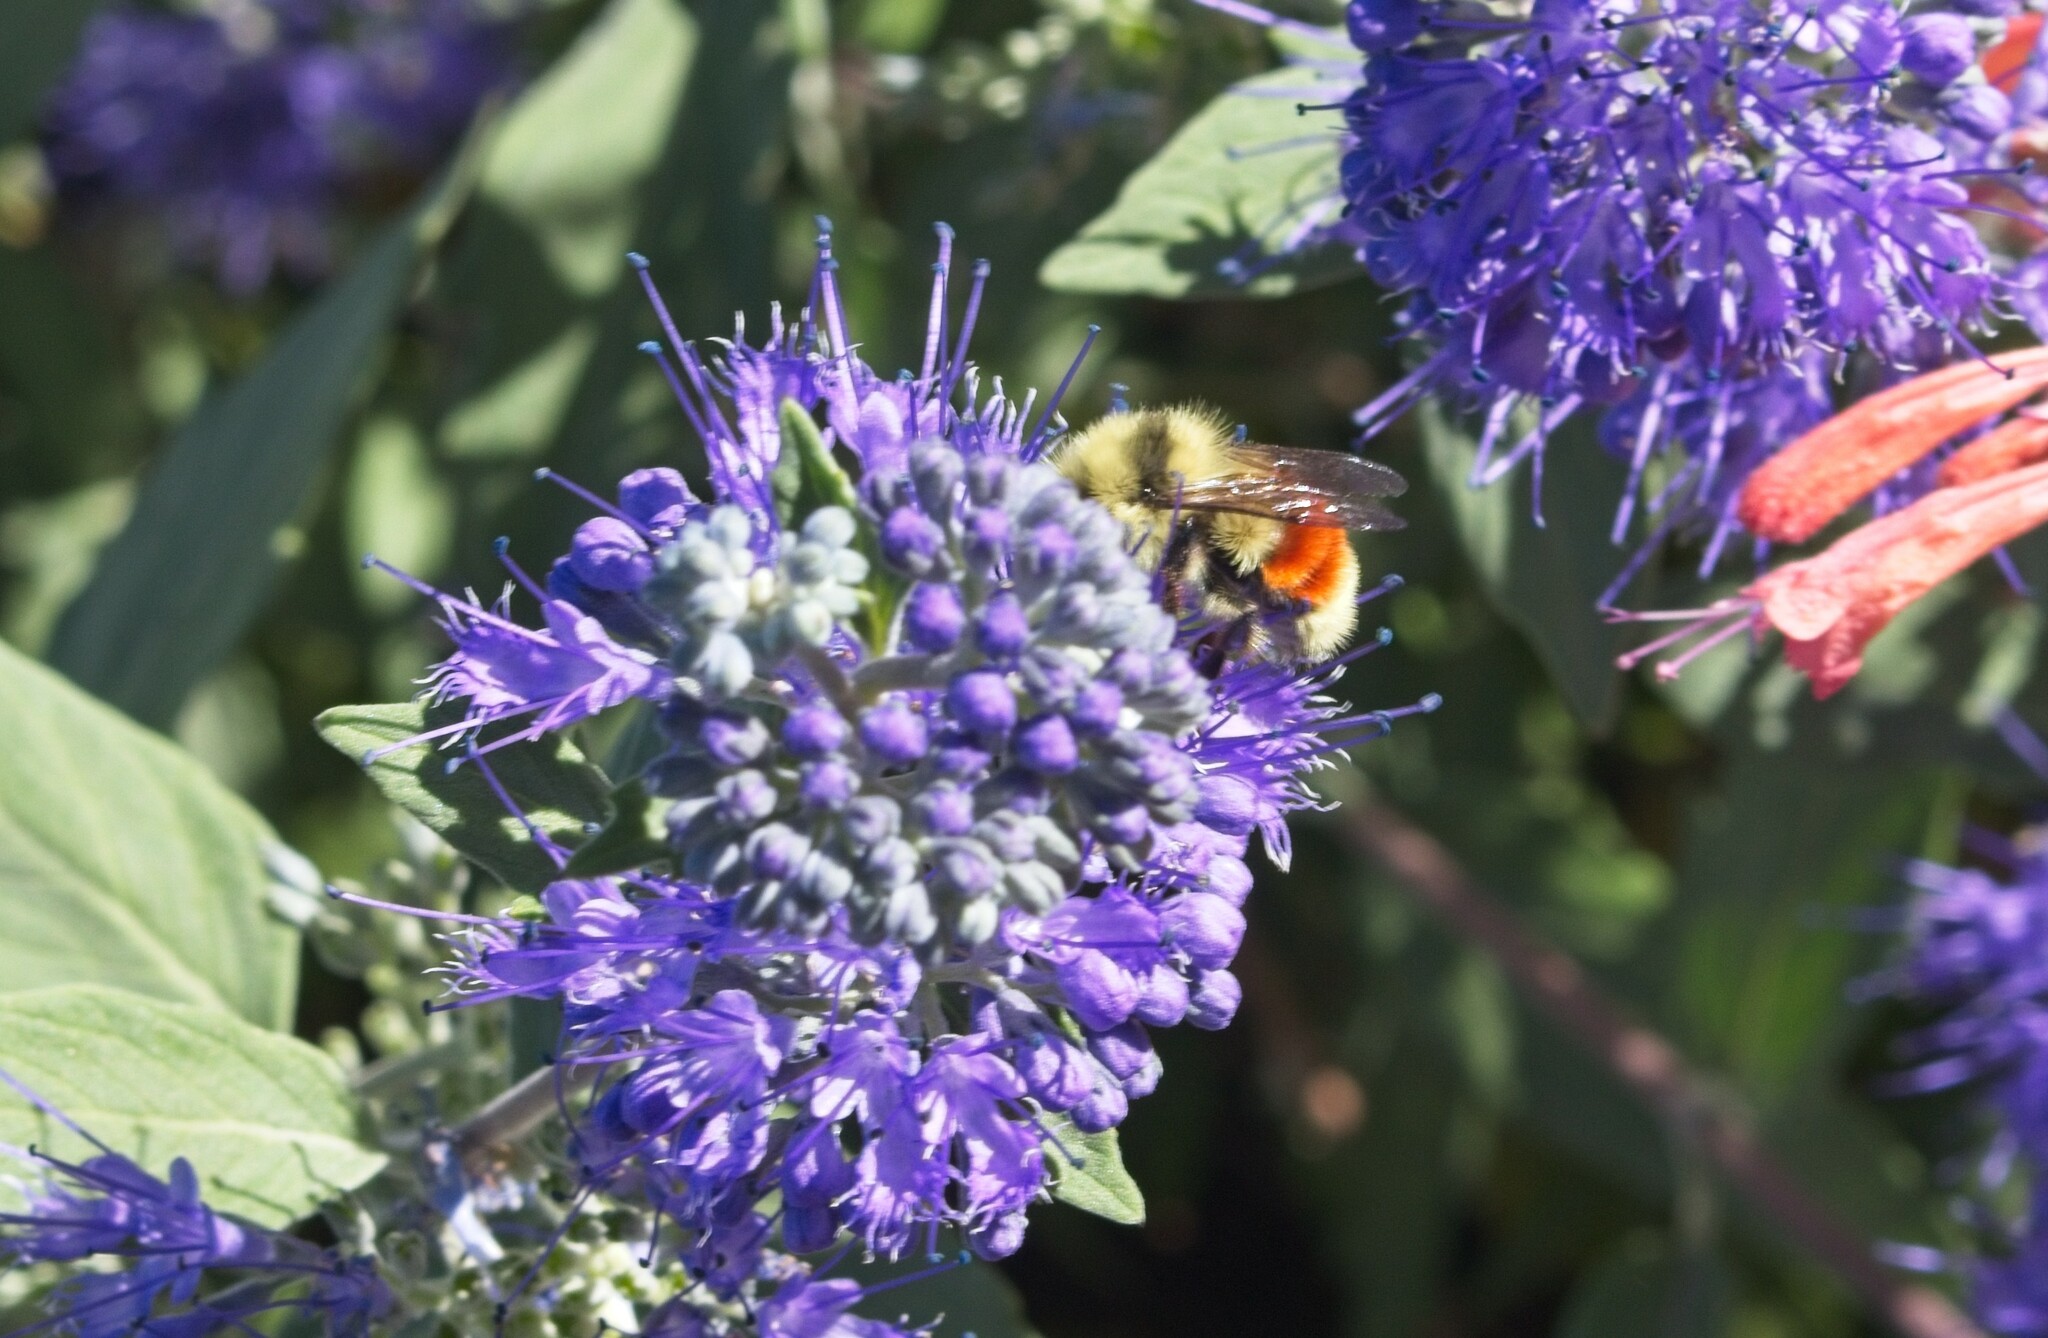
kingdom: Animalia
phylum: Arthropoda
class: Insecta
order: Hymenoptera
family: Apidae
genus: Bombus
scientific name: Bombus huntii
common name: Hunt bumble bee
